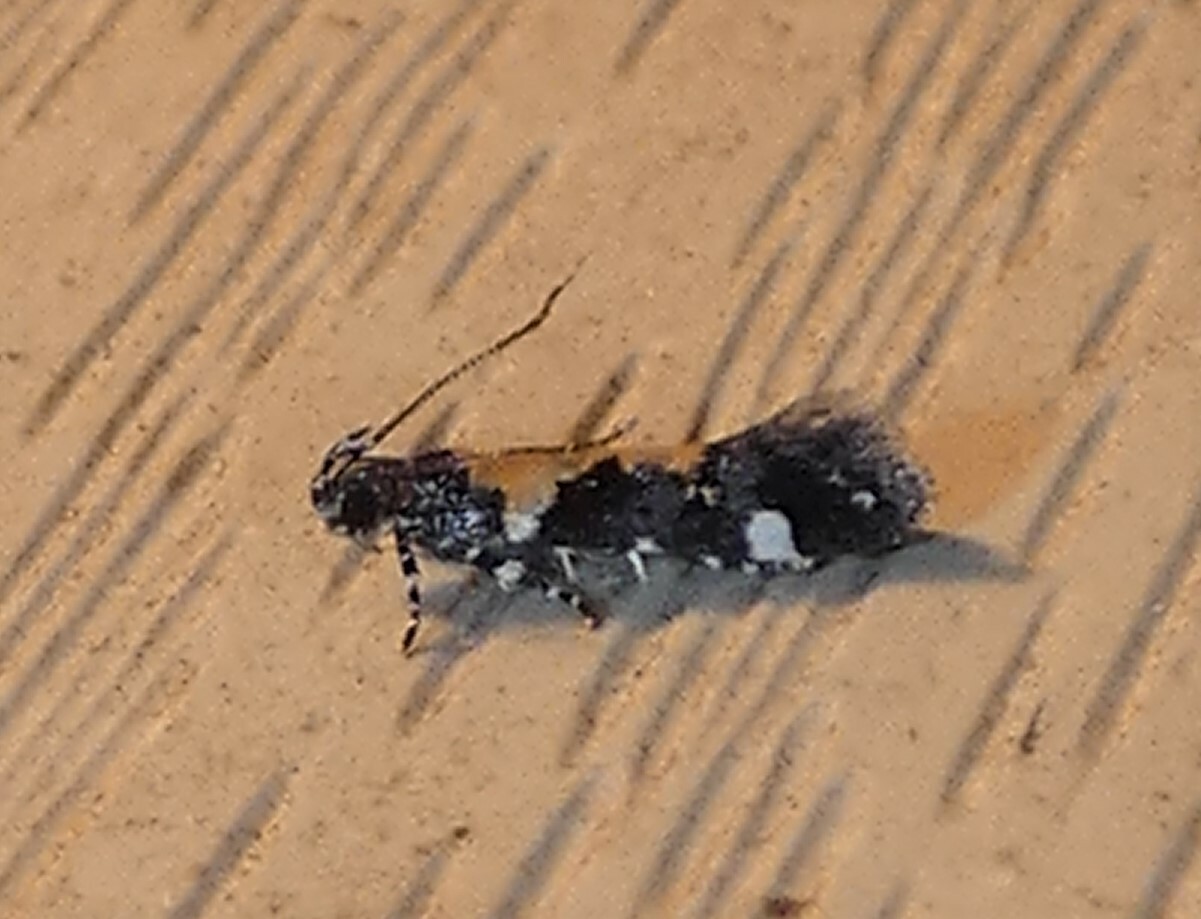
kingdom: Animalia
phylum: Arthropoda
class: Insecta
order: Lepidoptera
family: Gelechiidae
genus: Stegasta
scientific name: Stegasta bosqueella
